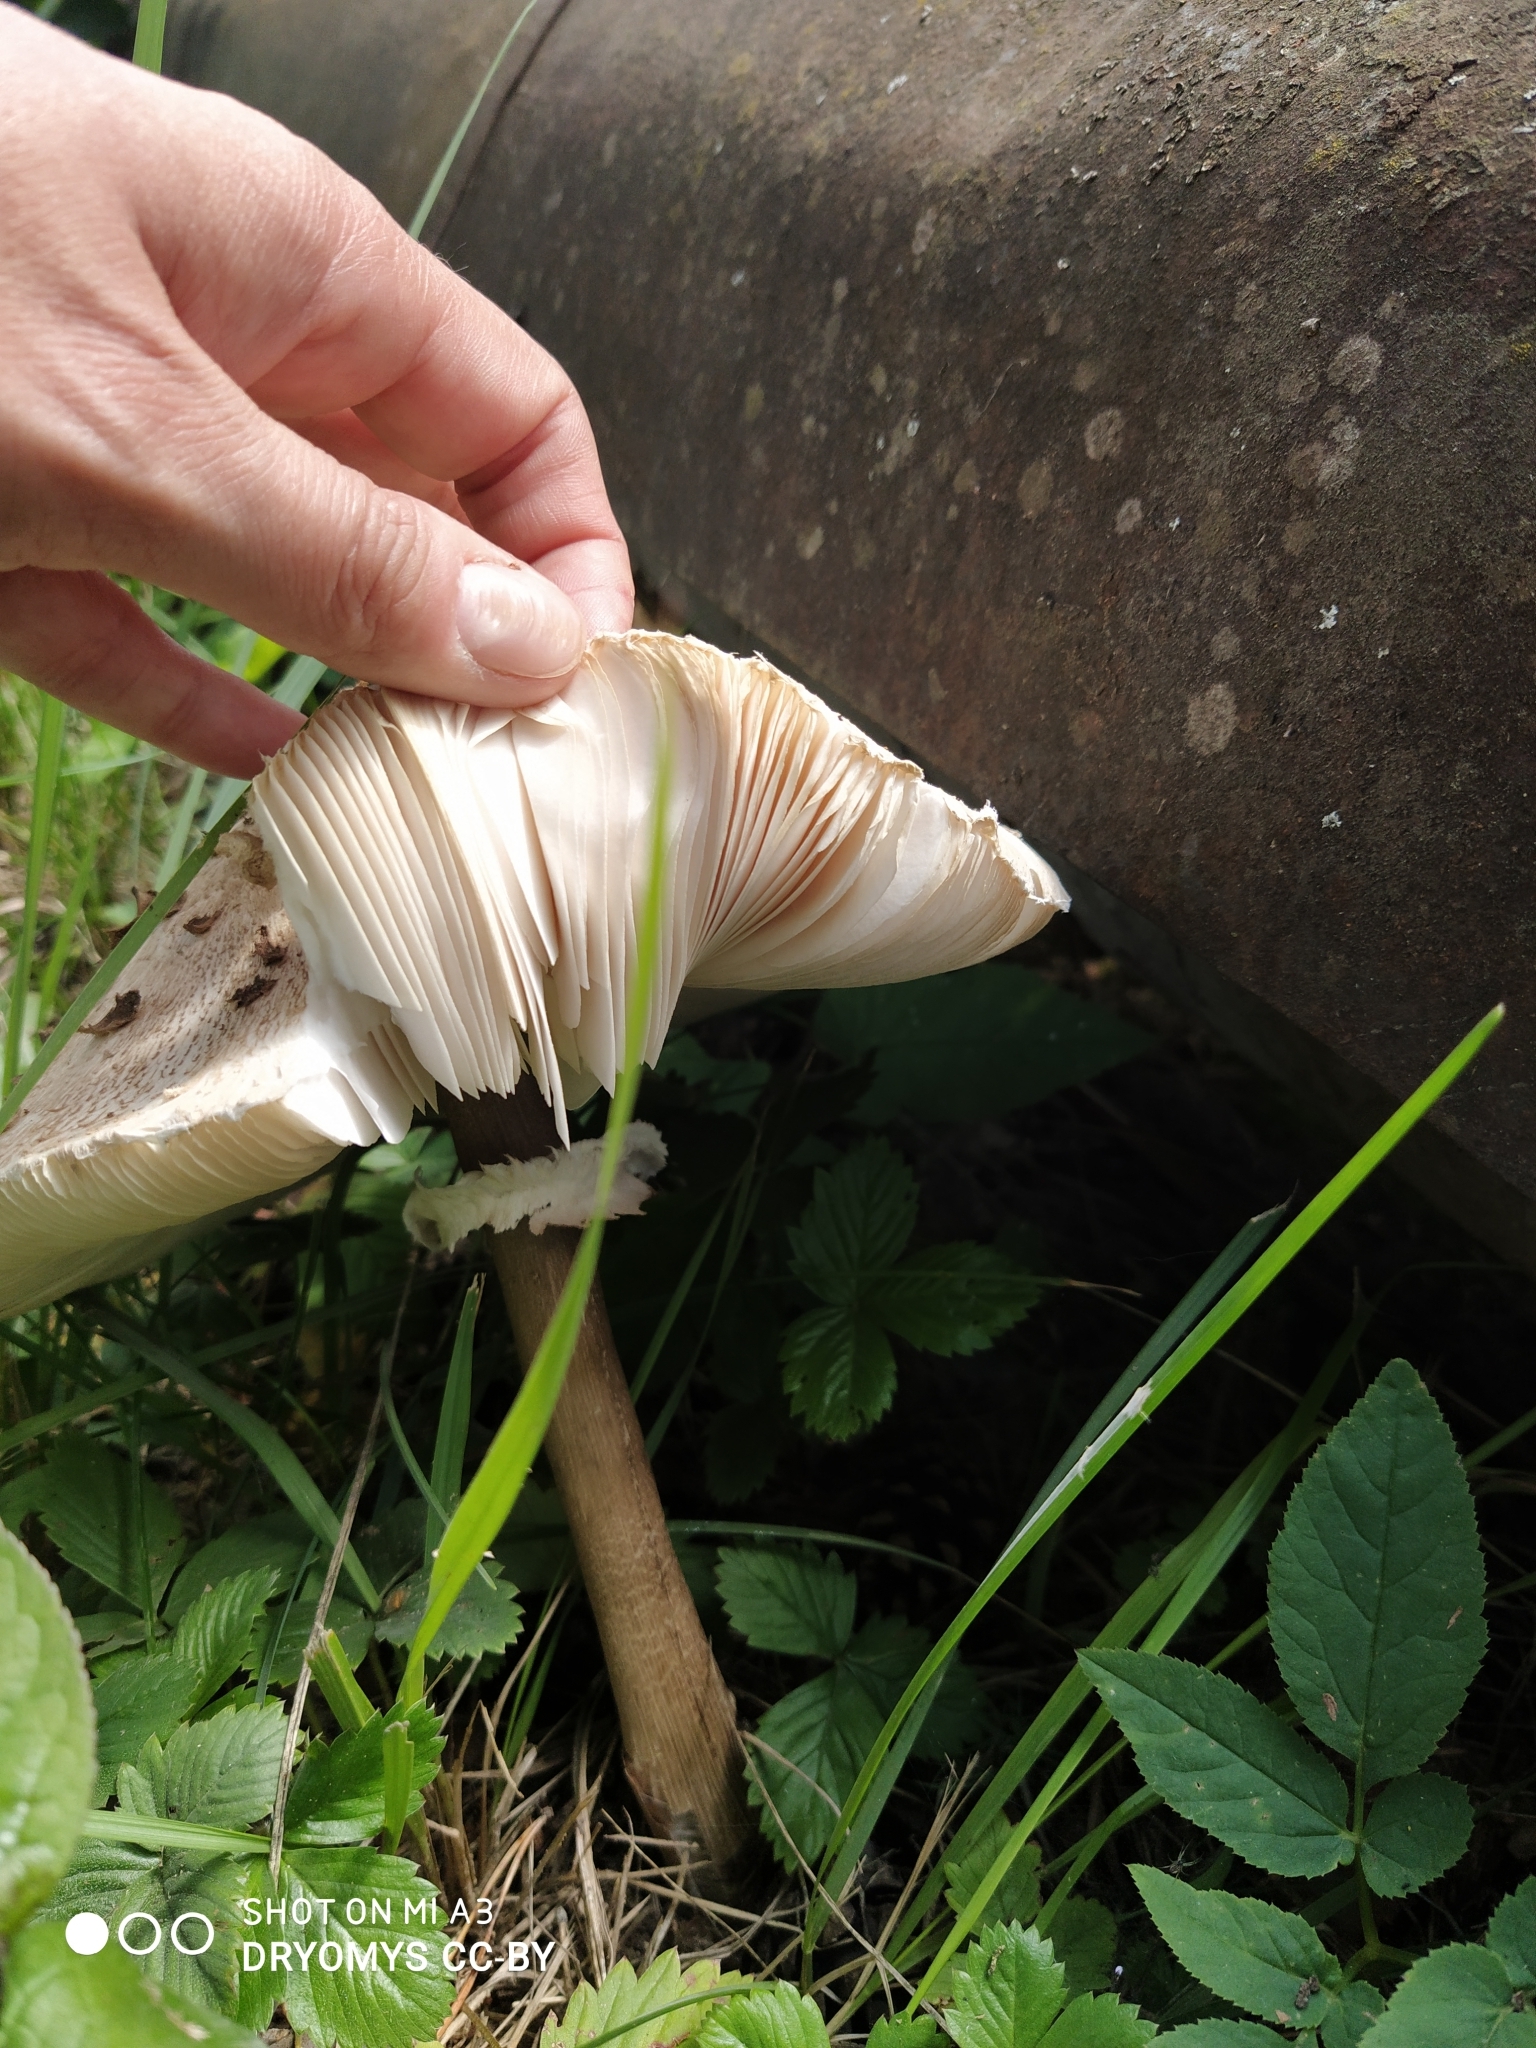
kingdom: Fungi
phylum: Basidiomycota
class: Agaricomycetes
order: Agaricales
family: Agaricaceae
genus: Macrolepiota
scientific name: Macrolepiota procera
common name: Parasol
